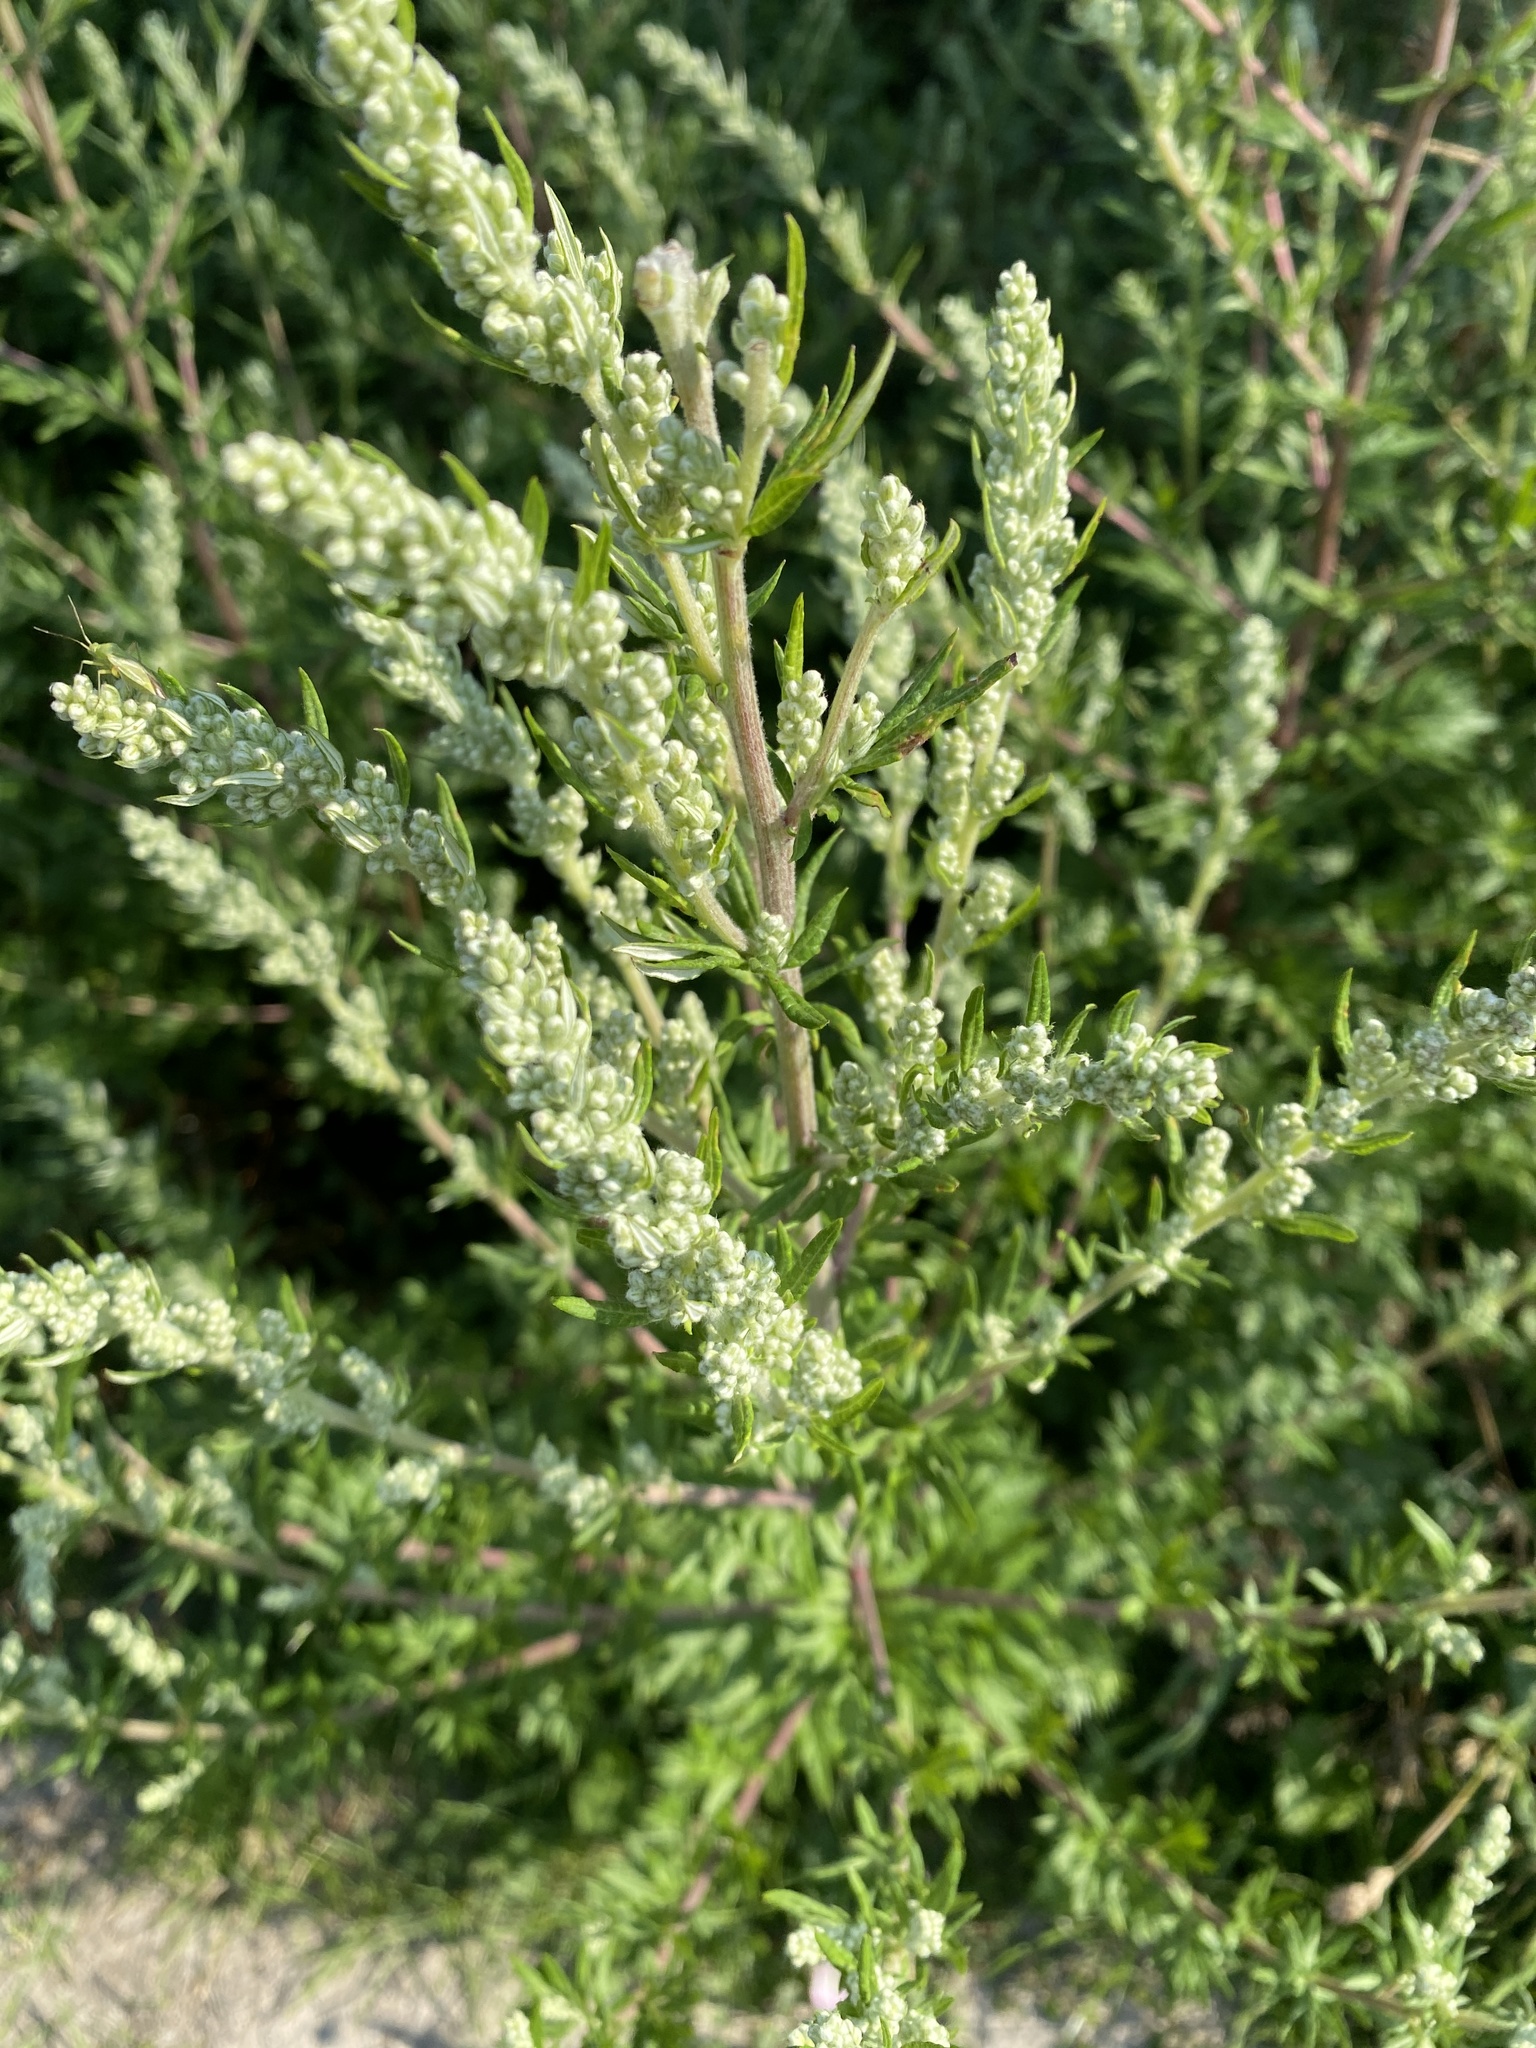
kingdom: Plantae
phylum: Tracheophyta
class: Magnoliopsida
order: Asterales
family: Asteraceae
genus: Artemisia
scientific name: Artemisia vulgaris
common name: Mugwort
